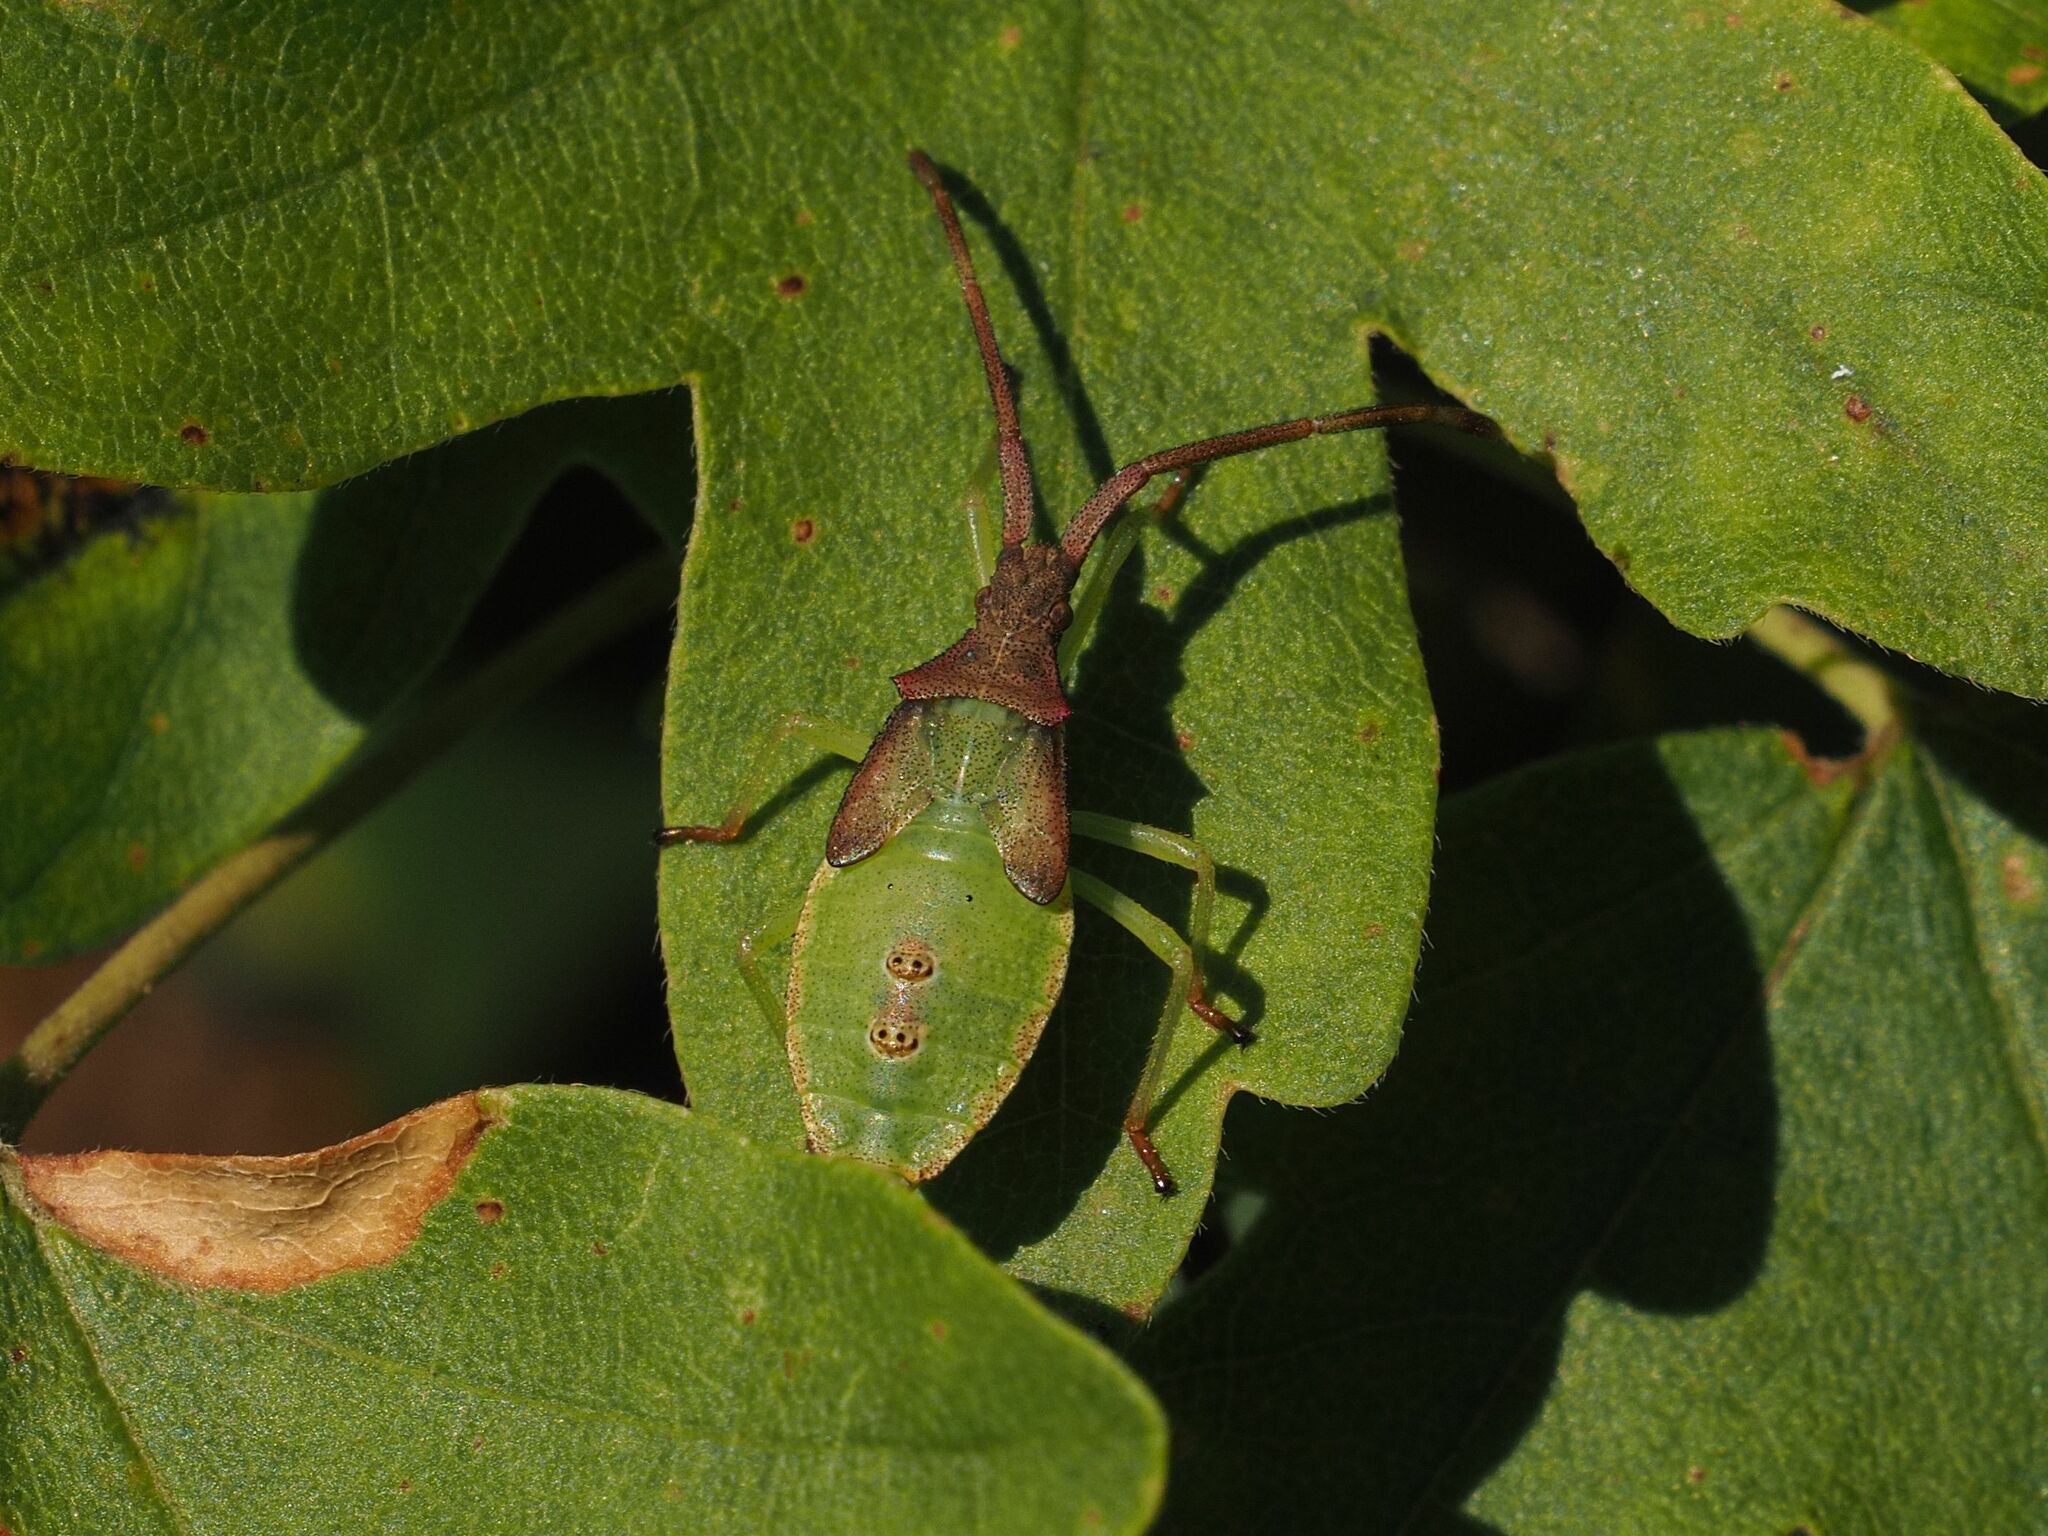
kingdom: Animalia
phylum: Arthropoda
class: Insecta
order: Hemiptera
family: Coreidae
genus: Gonocerus
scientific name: Gonocerus acuteangulatus
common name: Box bug
